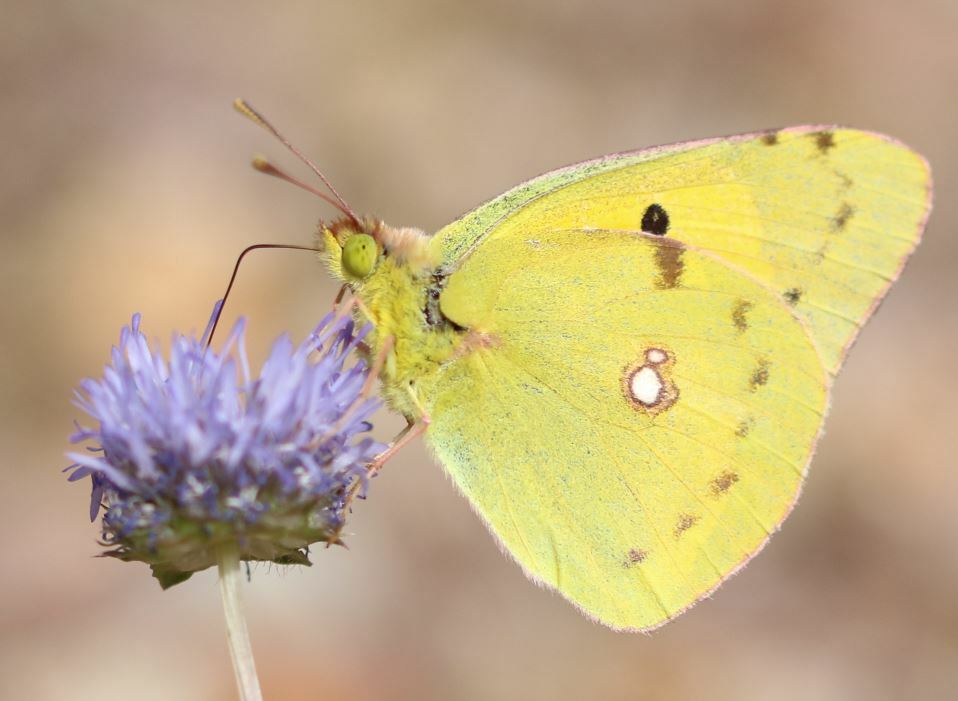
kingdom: Animalia
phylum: Arthropoda
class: Insecta
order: Lepidoptera
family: Pieridae
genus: Colias
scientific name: Colias croceus
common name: Clouded yellow
